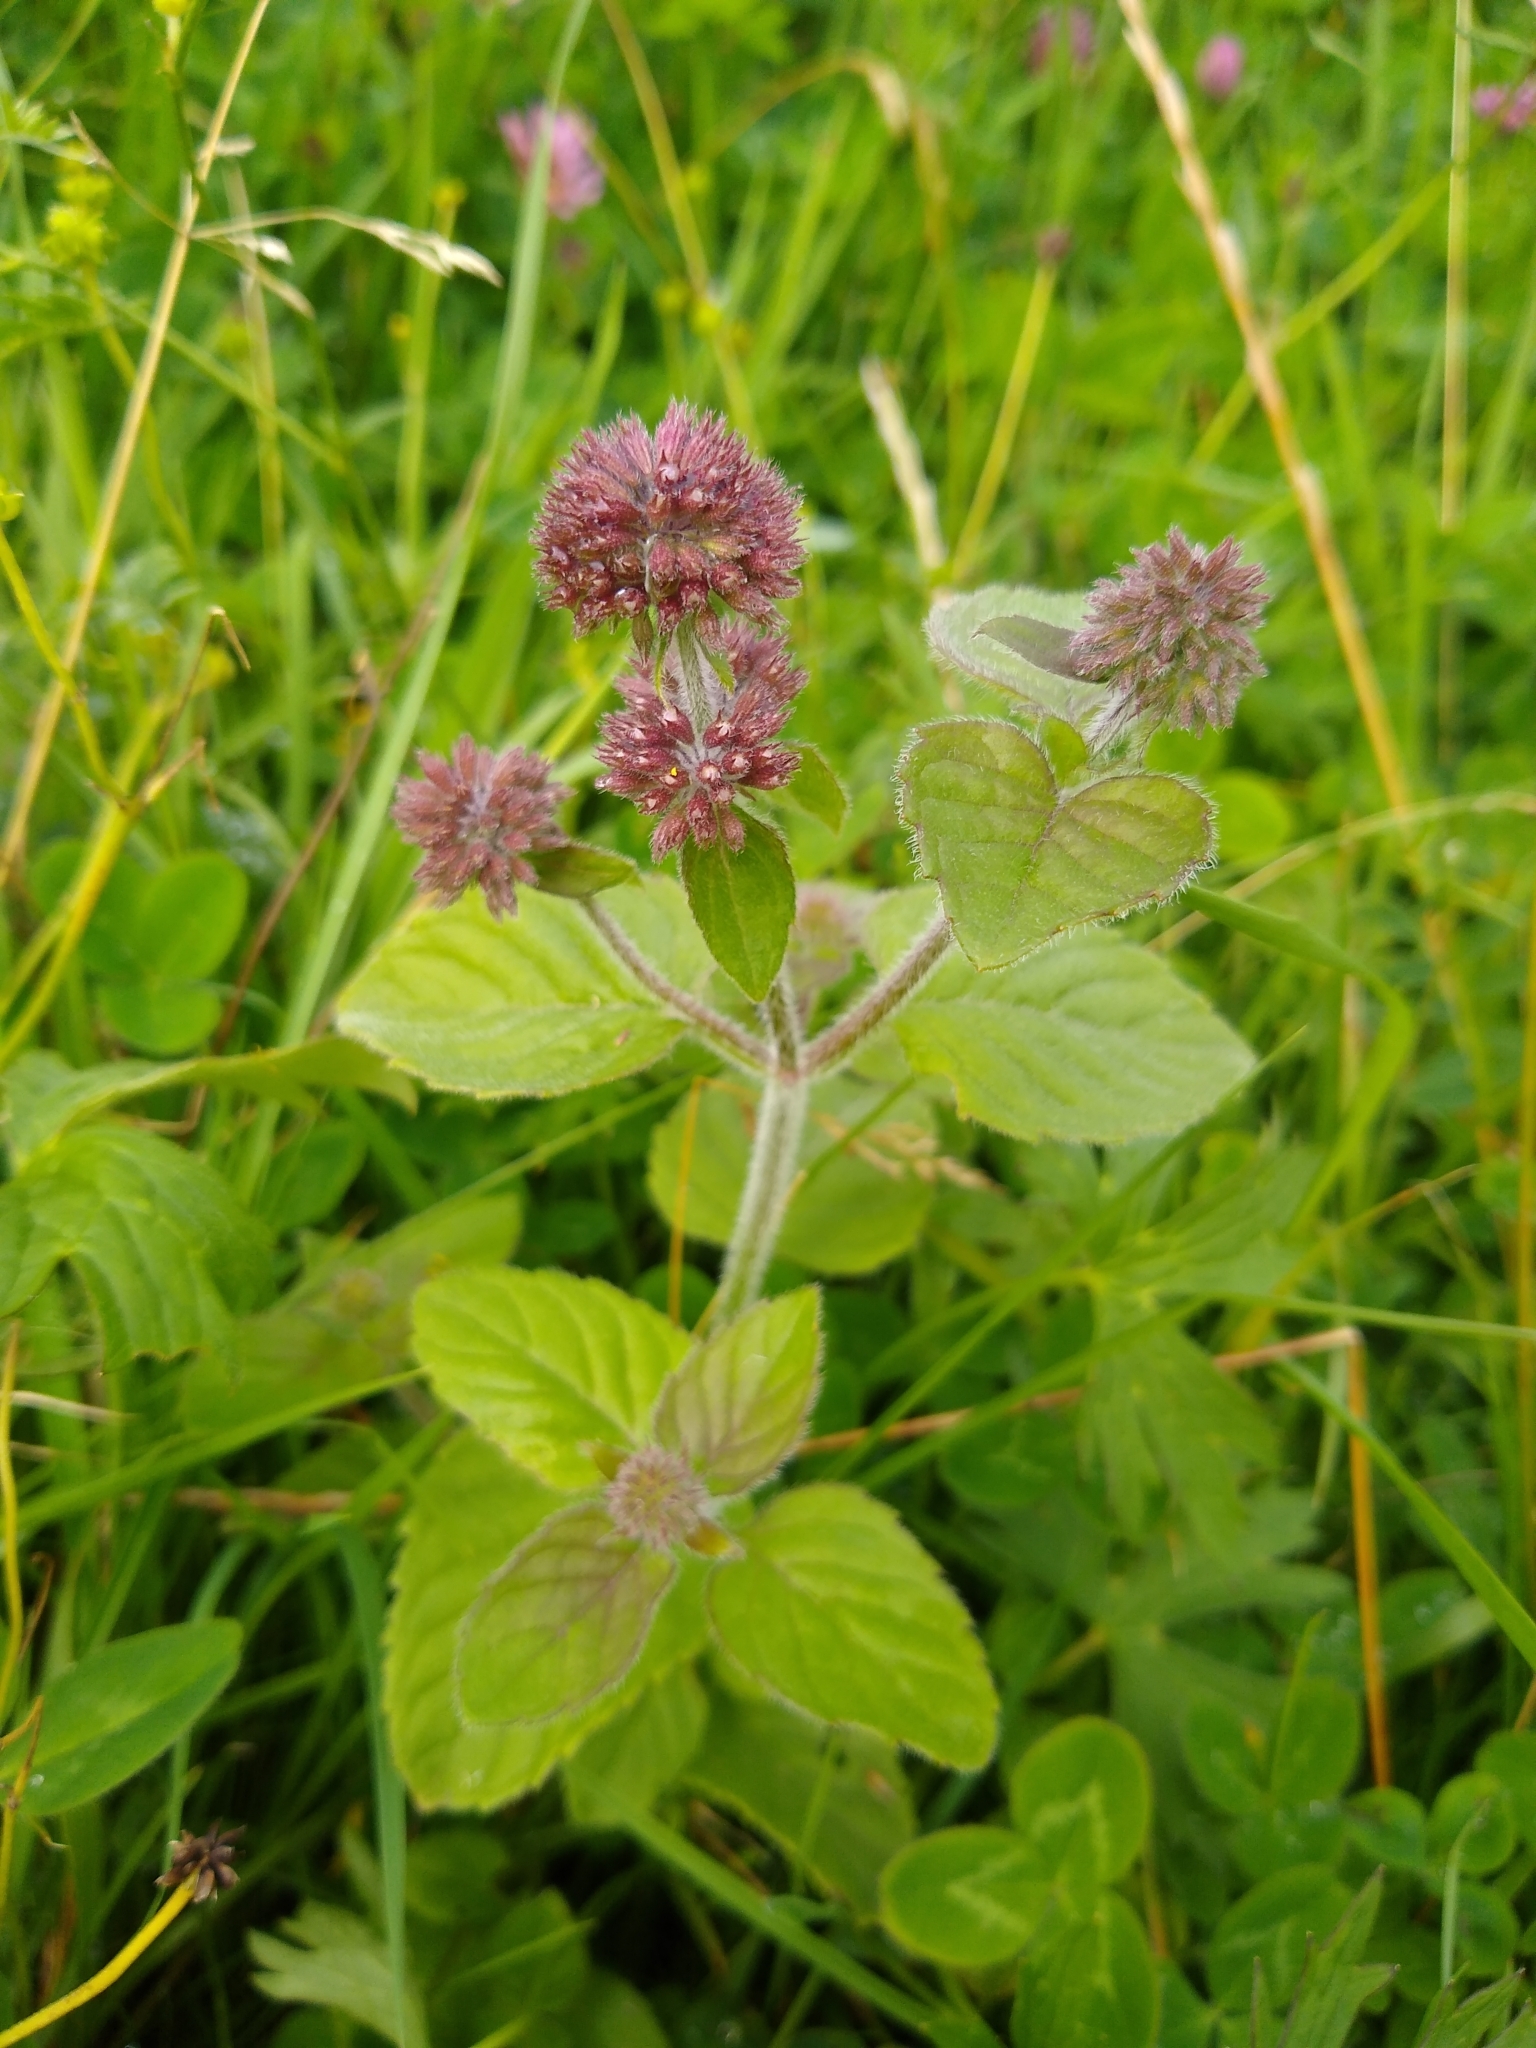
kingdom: Plantae
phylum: Tracheophyta
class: Magnoliopsida
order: Lamiales
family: Lamiaceae
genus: Mentha
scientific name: Mentha aquatica
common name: Water mint
